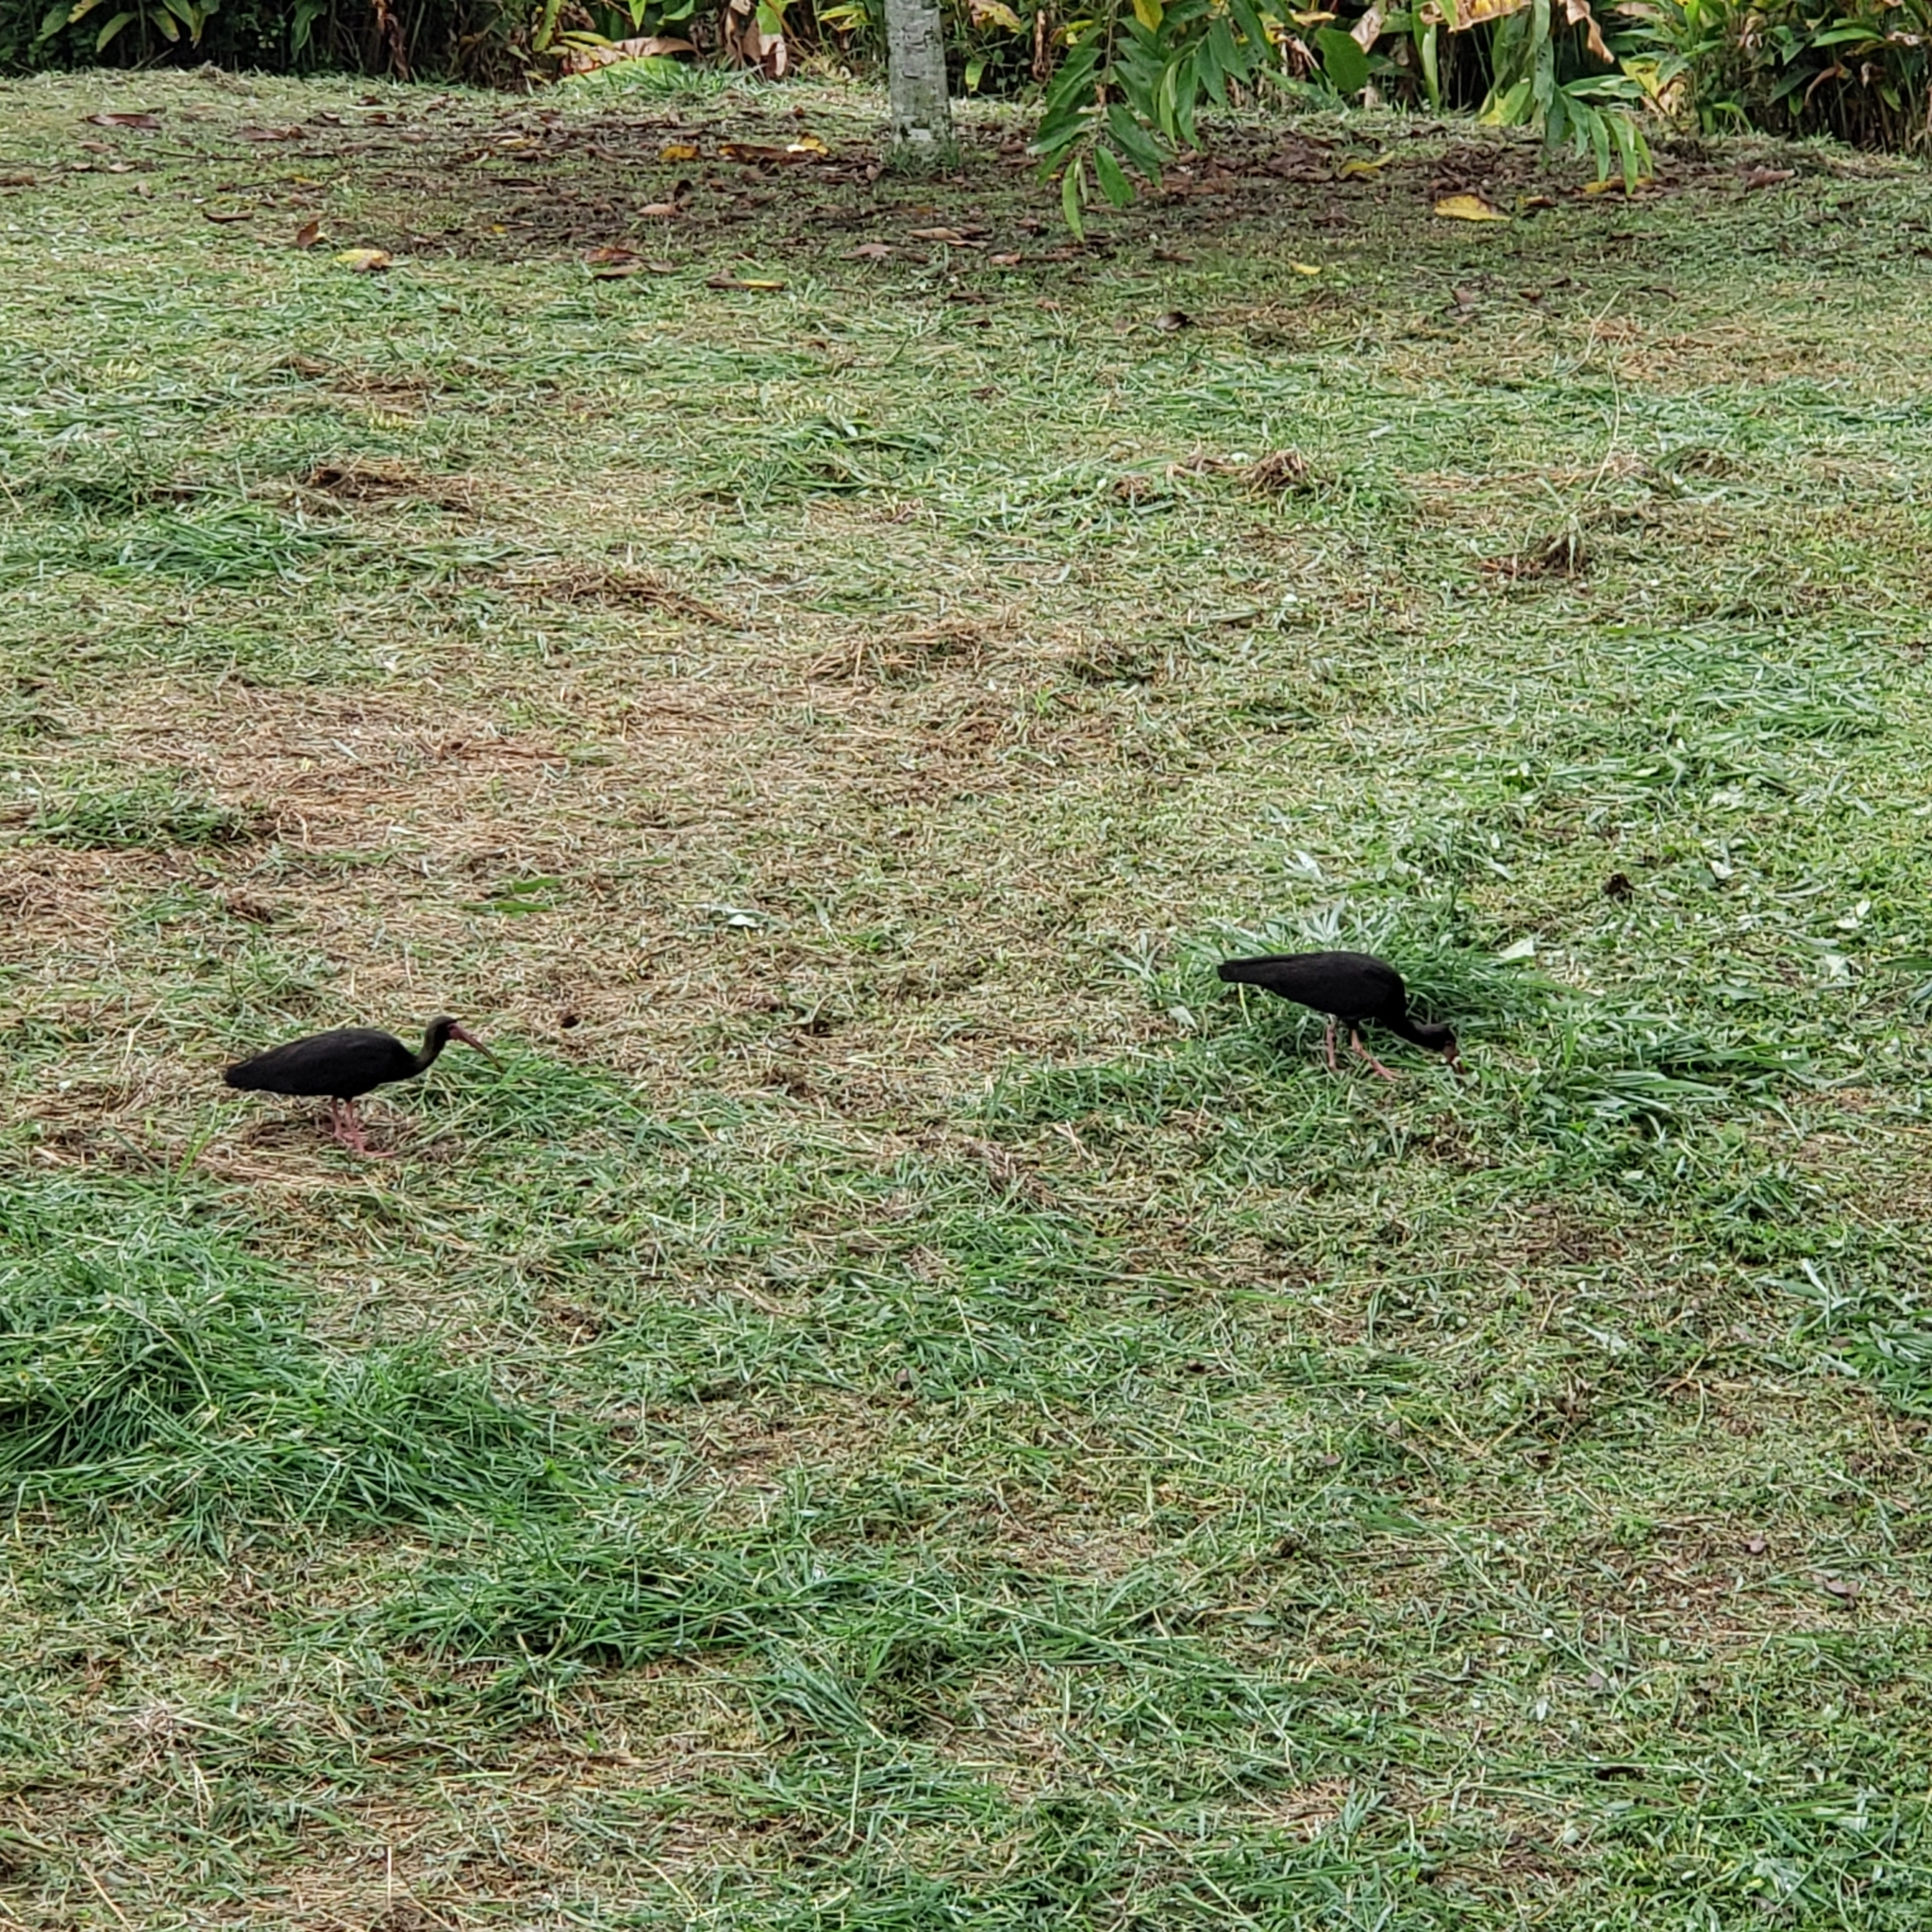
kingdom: Animalia
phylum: Chordata
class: Aves
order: Pelecaniformes
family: Threskiornithidae
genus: Phimosus
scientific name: Phimosus infuscatus
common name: Bare-faced ibis
